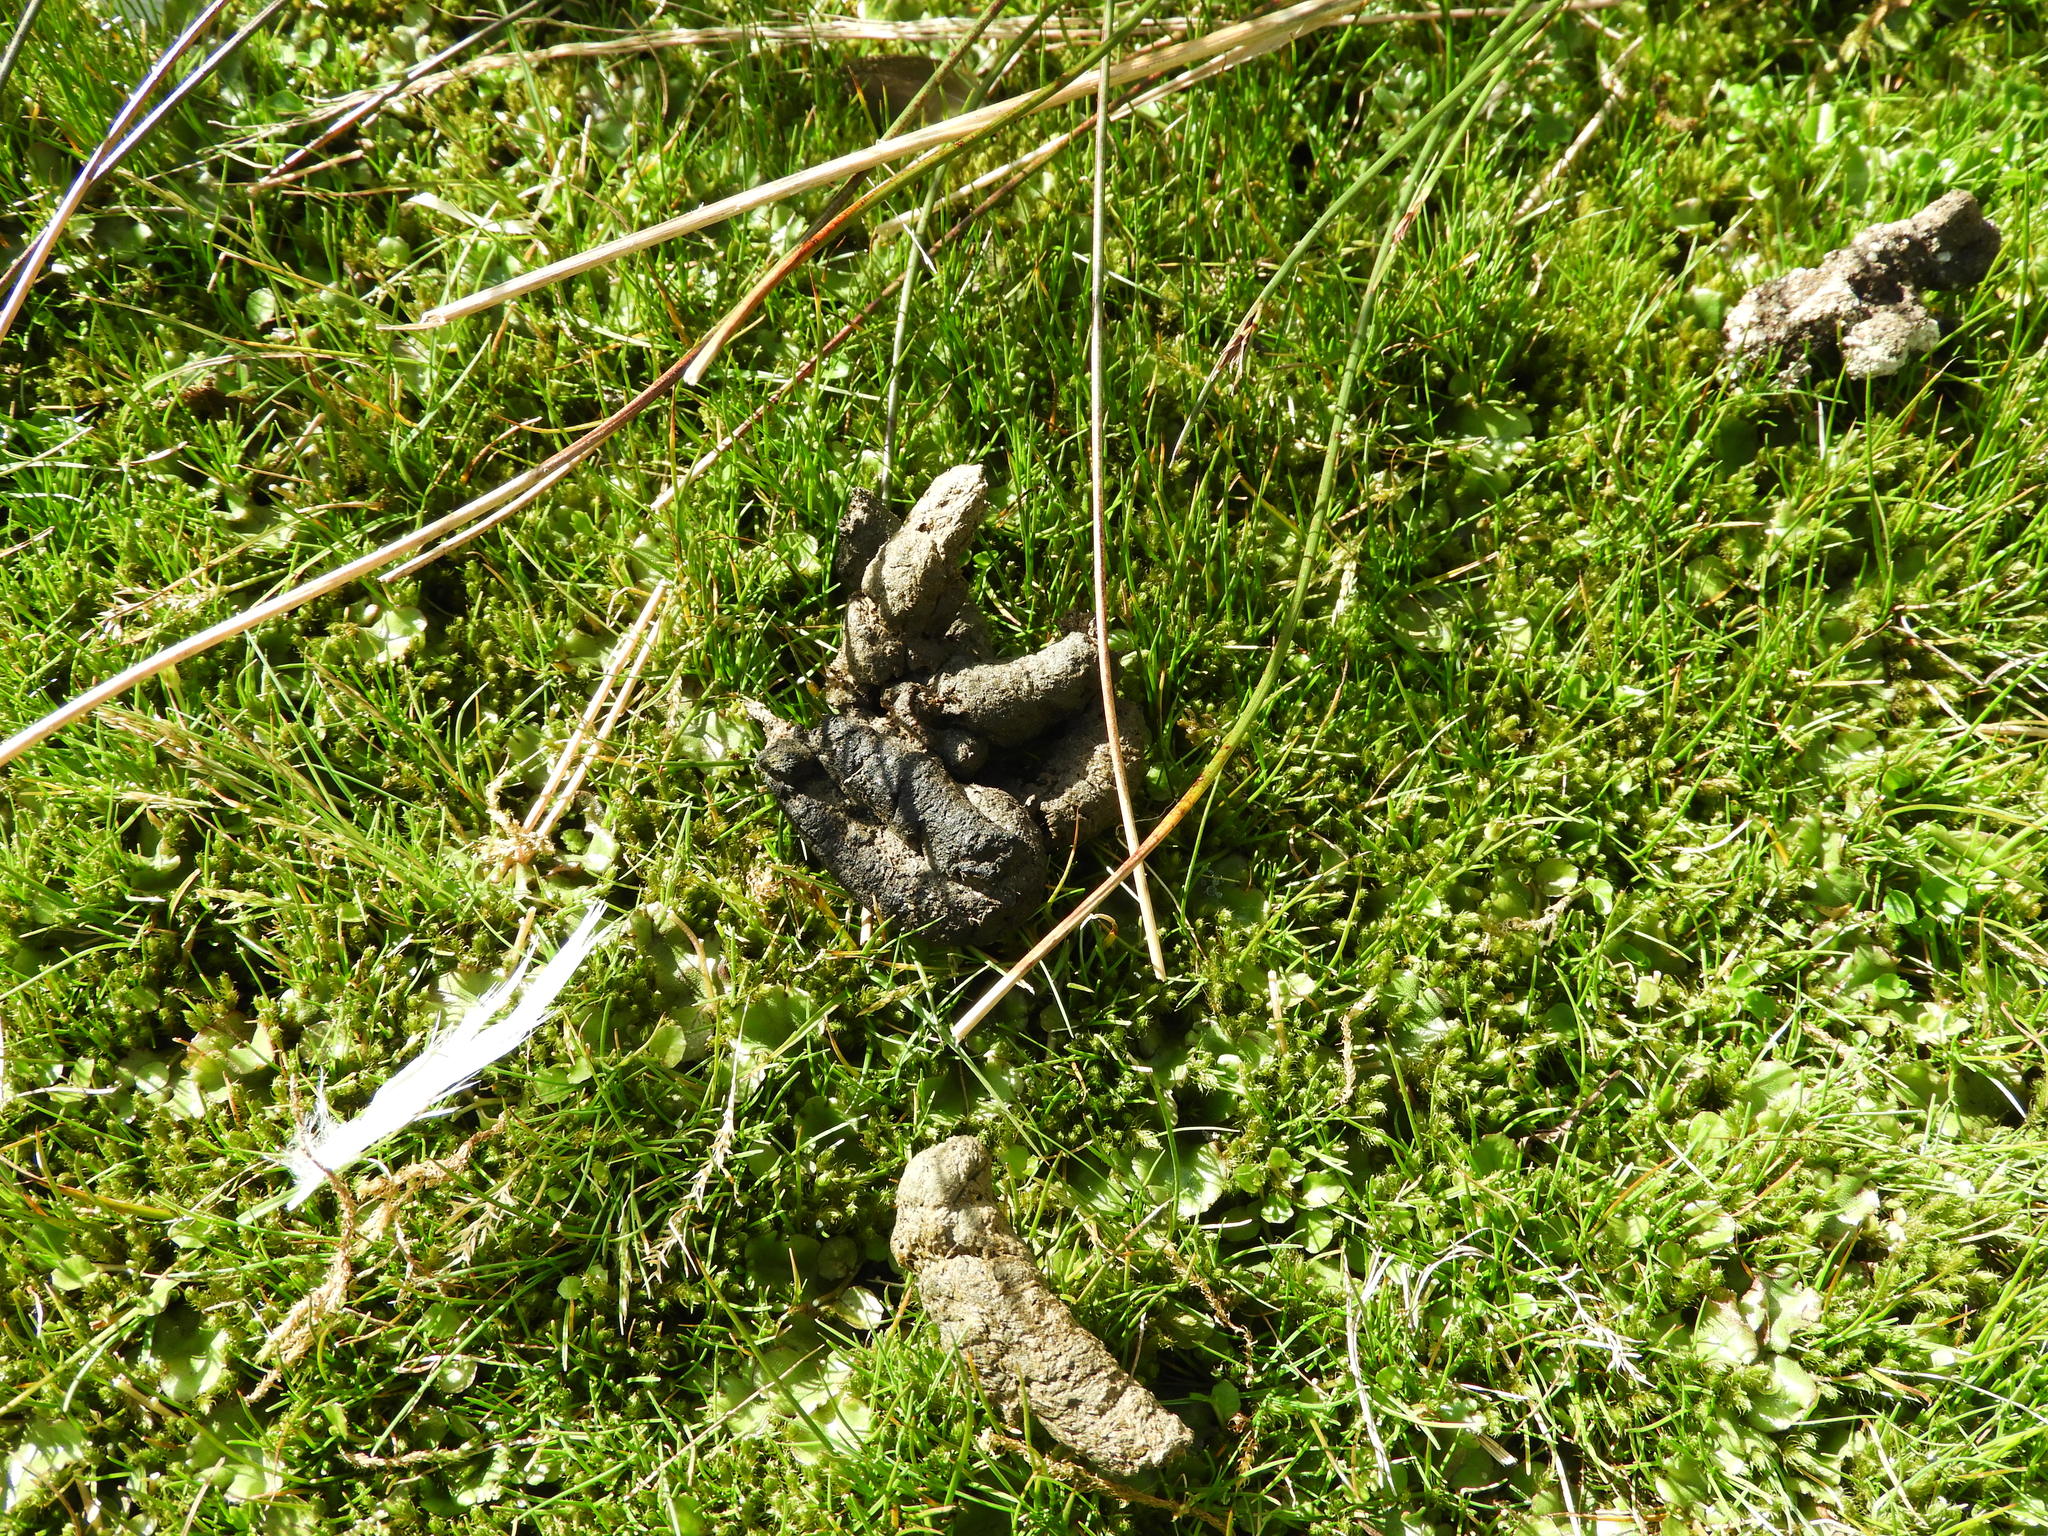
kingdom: Animalia
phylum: Chordata
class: Aves
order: Gruiformes
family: Rallidae
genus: Porphyrio
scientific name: Porphyrio hochstetteri
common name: South island takahe
